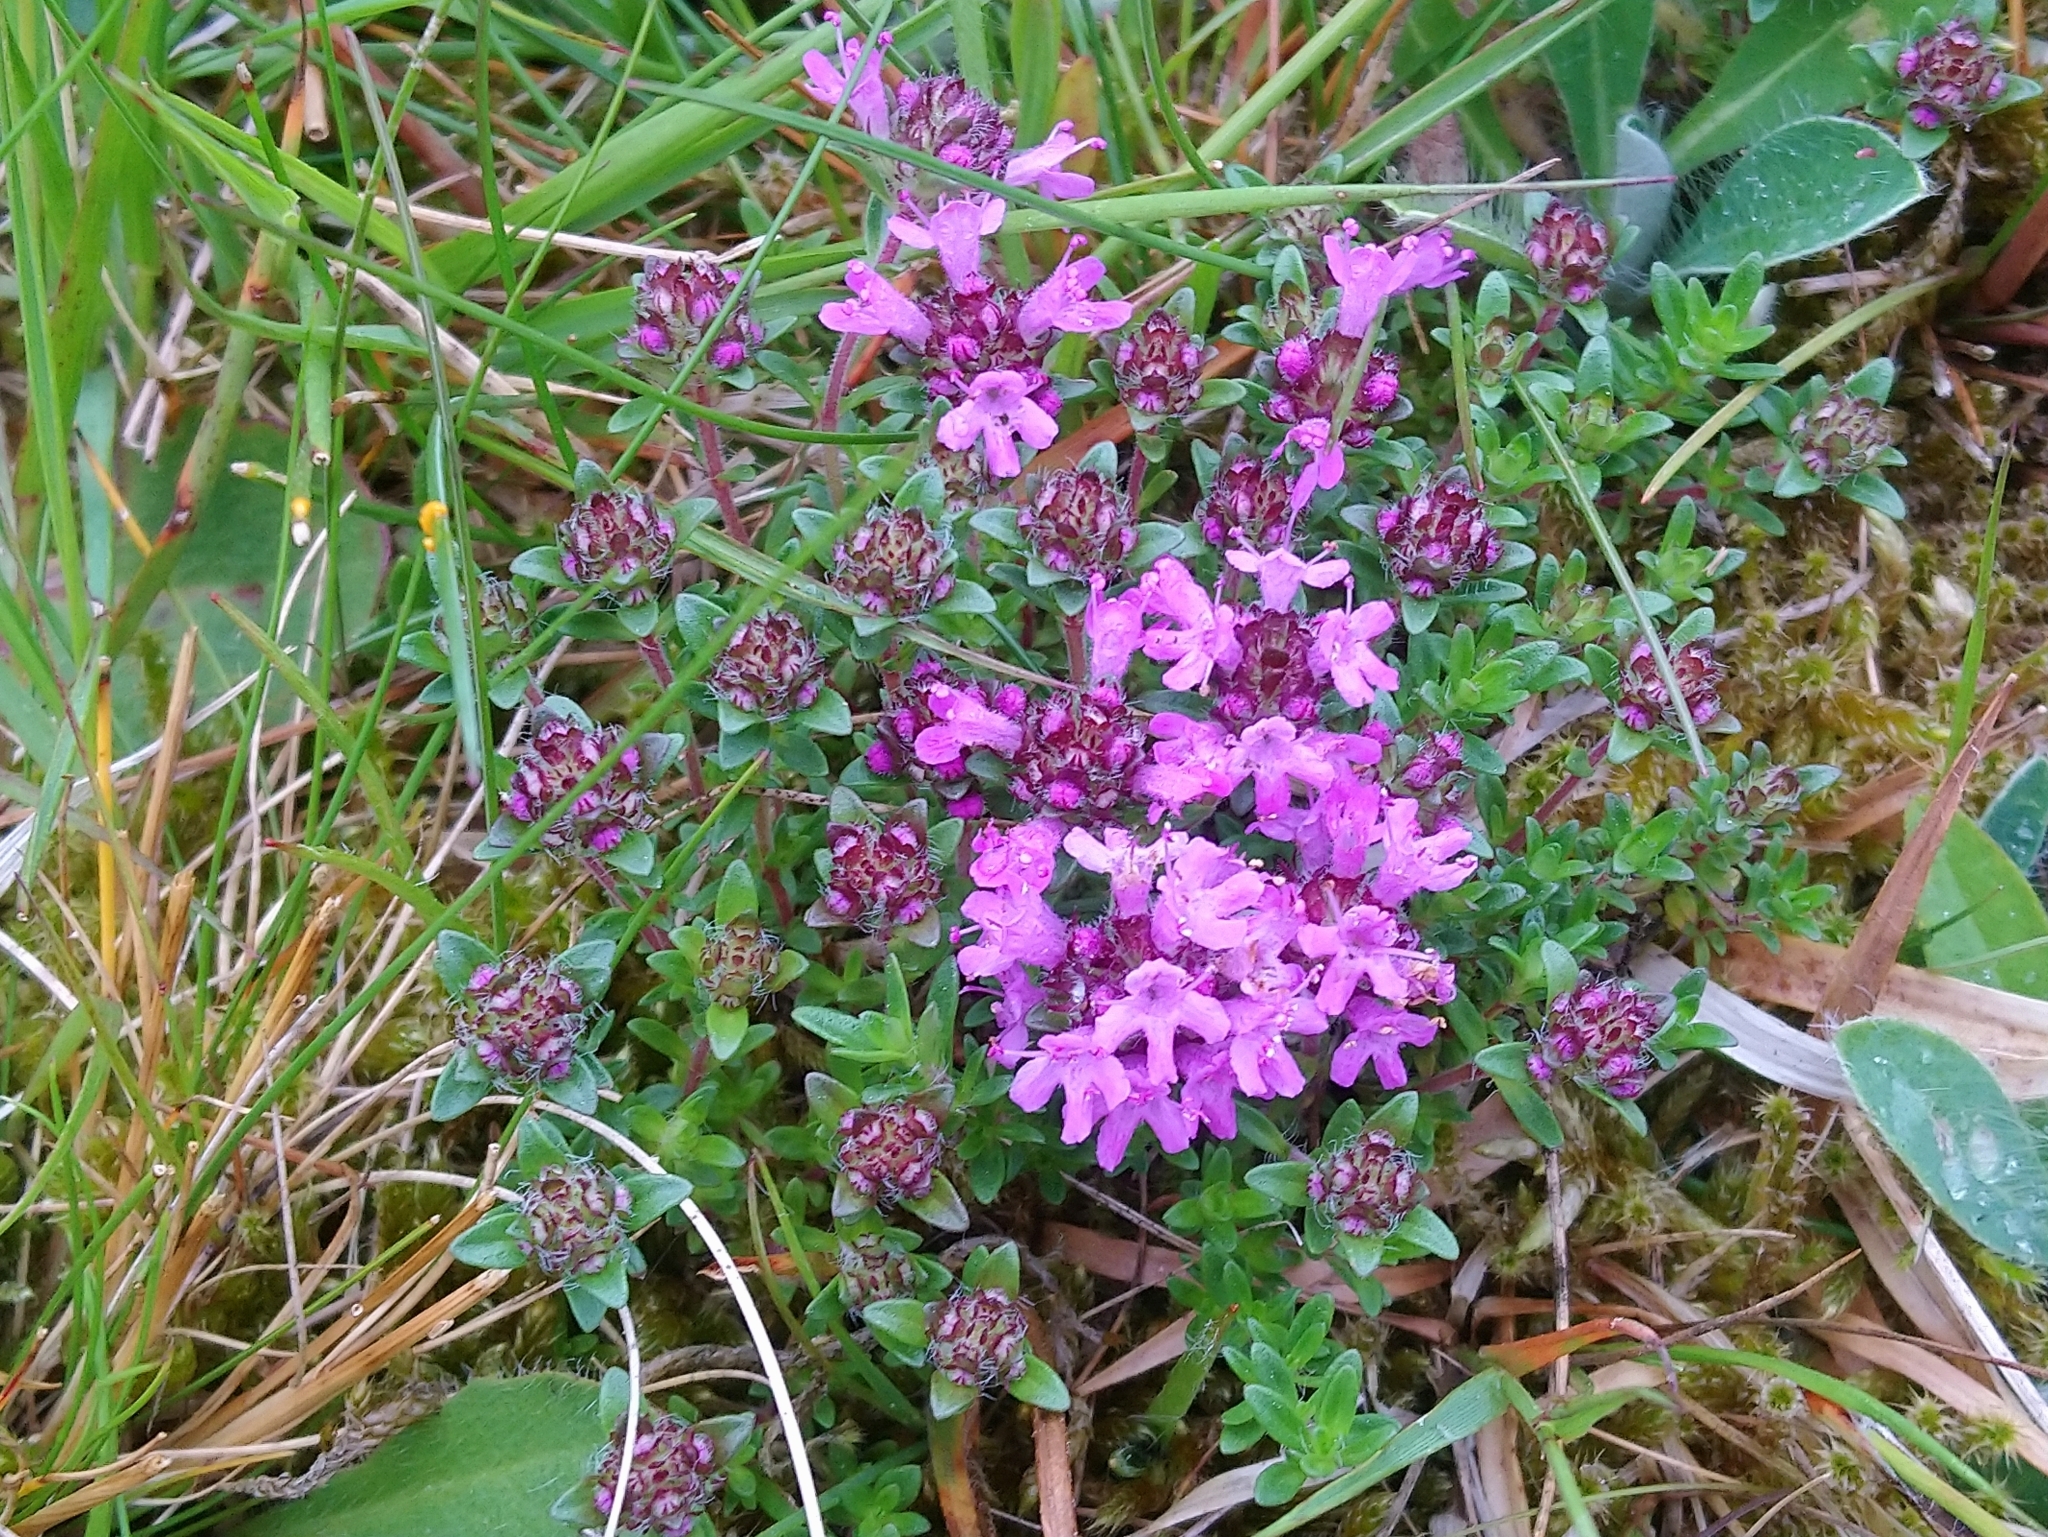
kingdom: Plantae
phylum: Tracheophyta
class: Magnoliopsida
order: Lamiales
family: Lamiaceae
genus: Thymus
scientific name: Thymus serpyllum
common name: Breckland thyme
